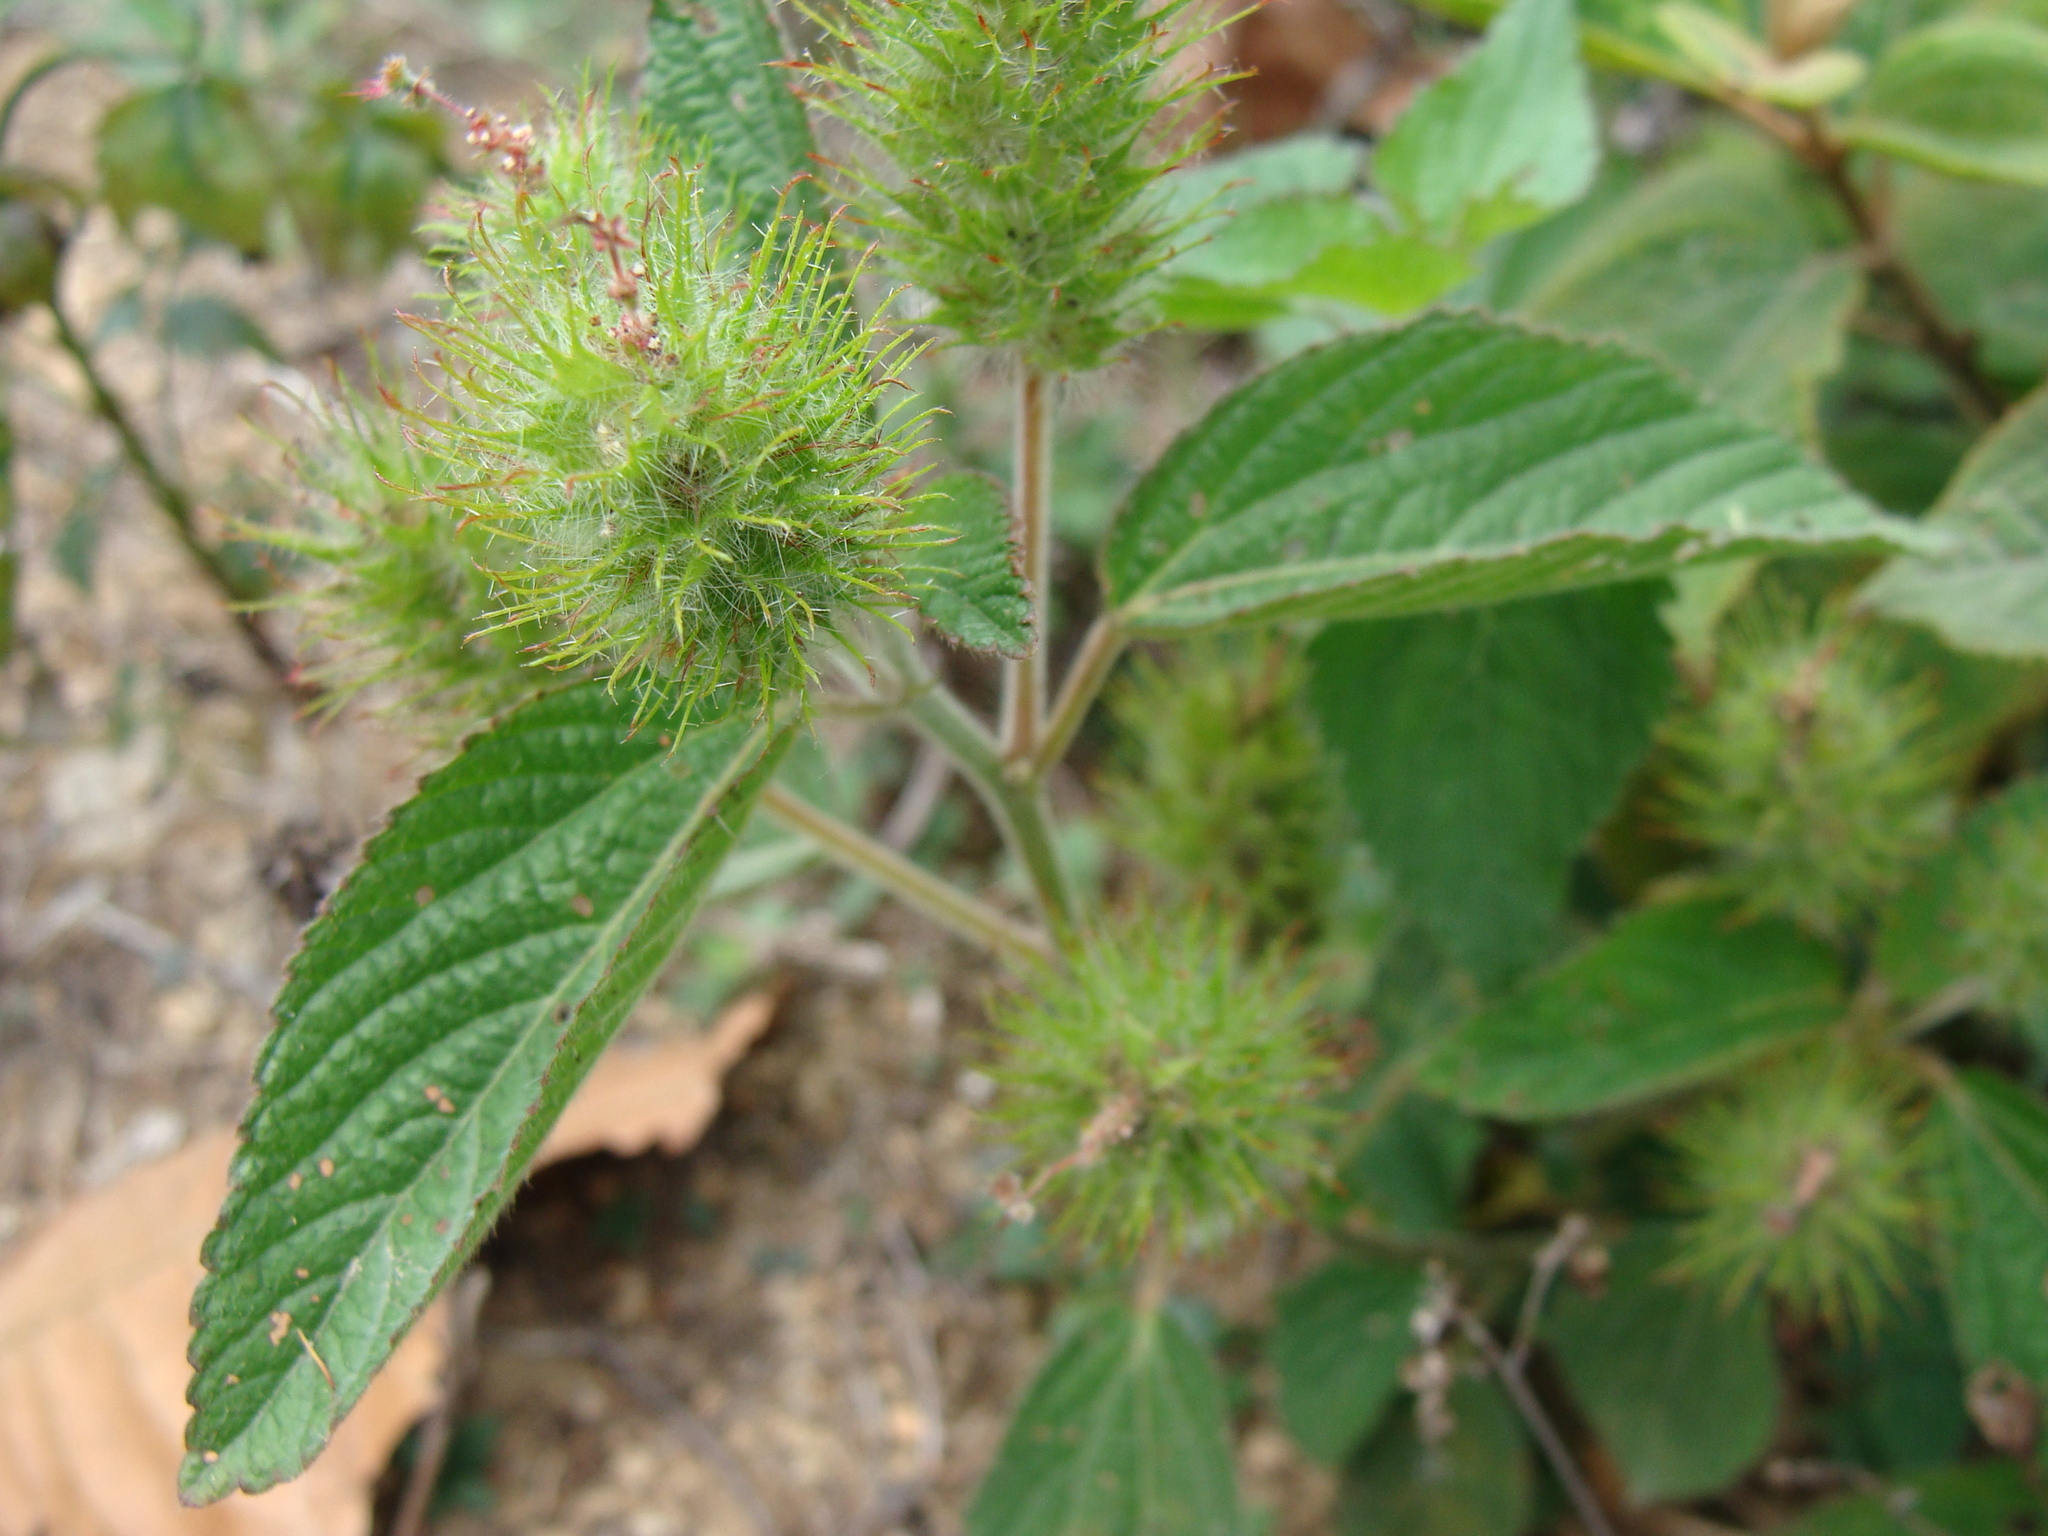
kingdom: Plantae
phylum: Tracheophyta
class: Magnoliopsida
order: Malpighiales
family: Euphorbiaceae
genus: Acalypha
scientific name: Acalypha arvensis
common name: Field copperleaf
